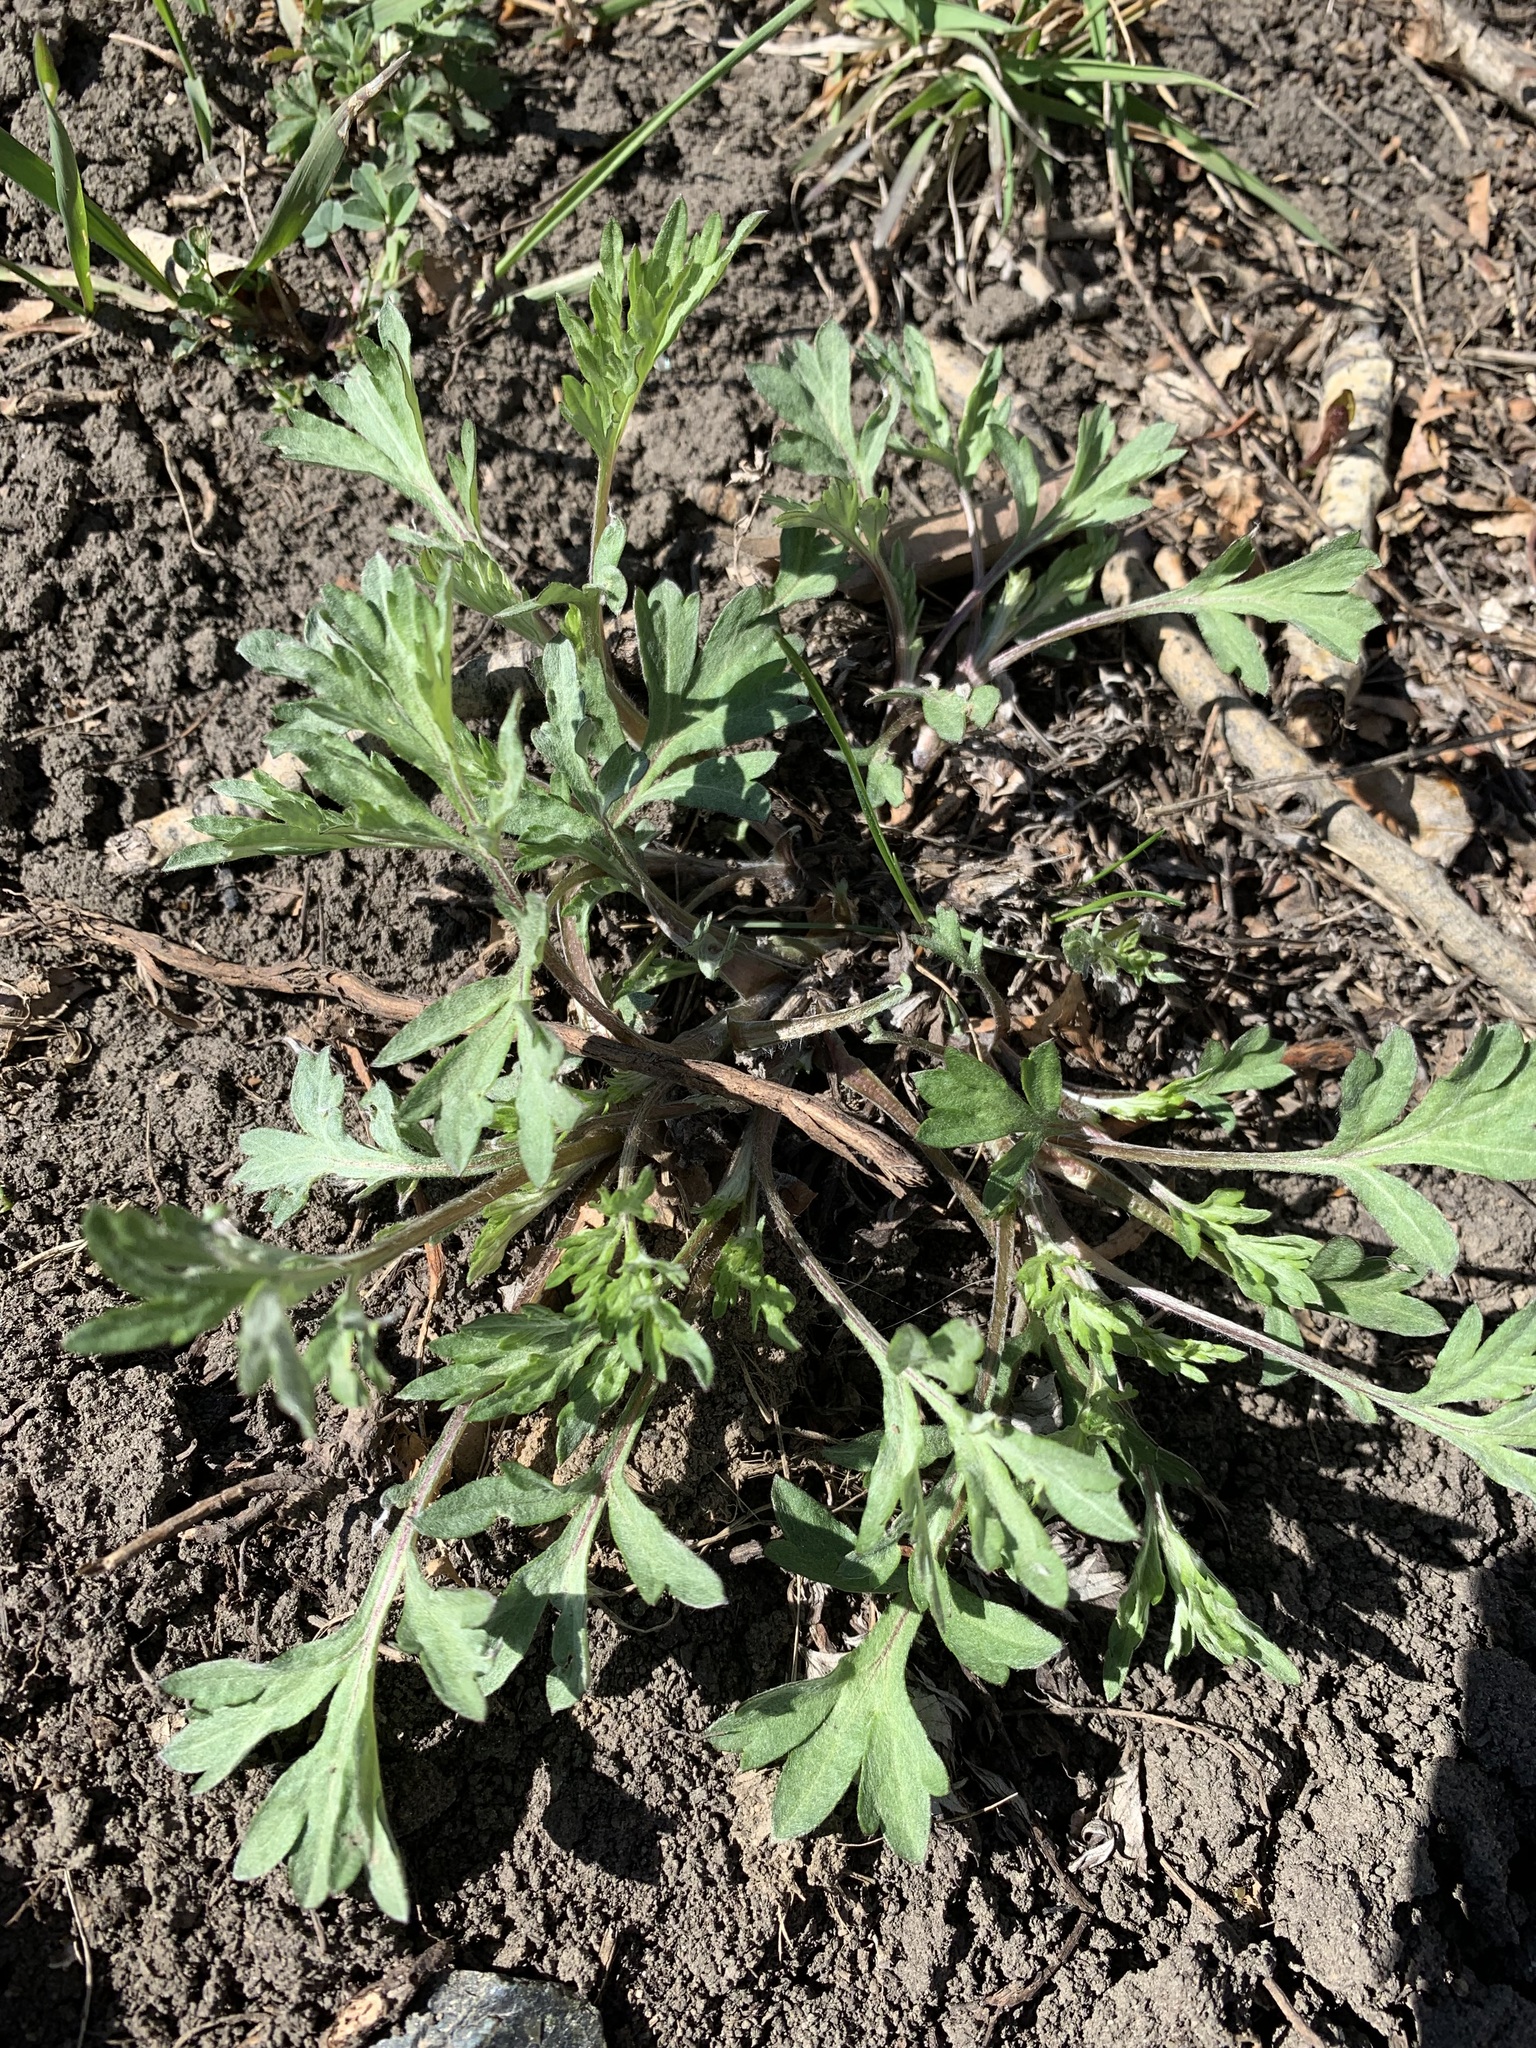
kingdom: Plantae
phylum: Tracheophyta
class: Magnoliopsida
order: Asterales
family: Asteraceae
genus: Artemisia
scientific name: Artemisia vulgaris
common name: Mugwort
